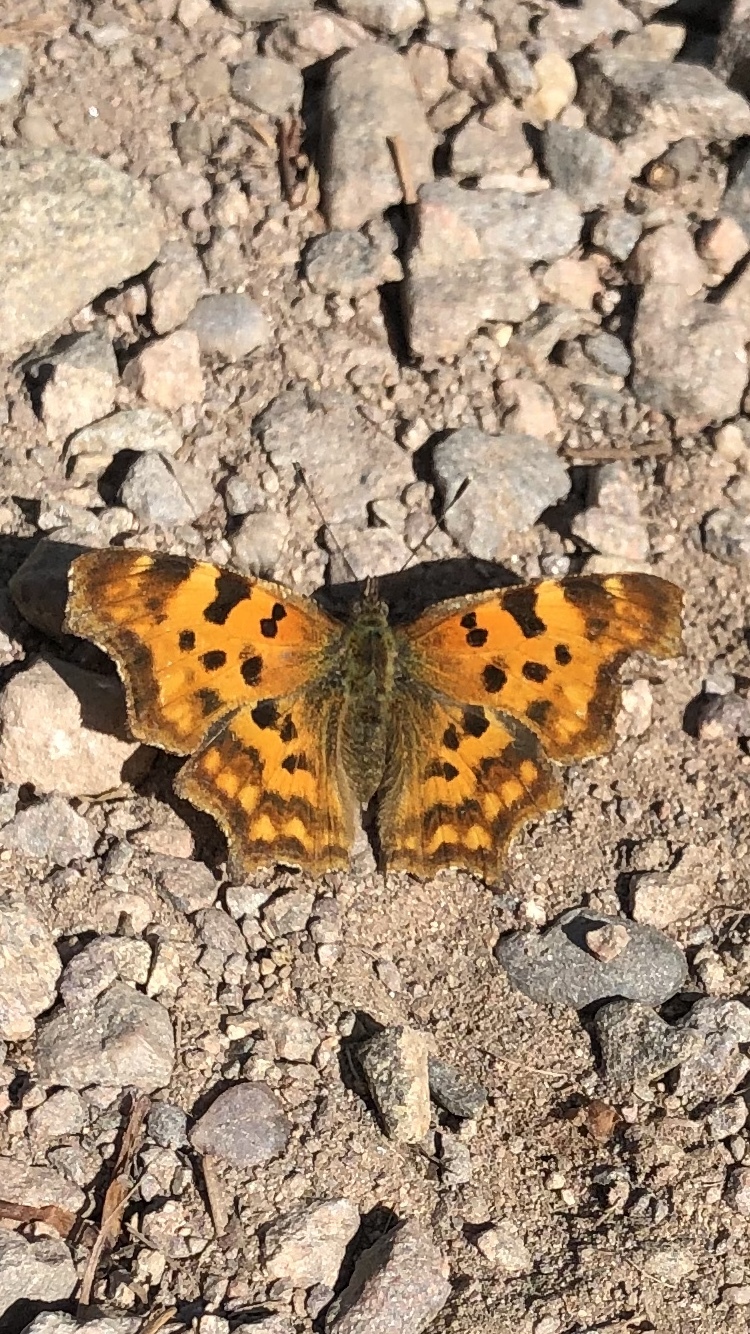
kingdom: Animalia
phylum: Arthropoda
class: Insecta
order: Lepidoptera
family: Nymphalidae
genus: Polygonia
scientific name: Polygonia c-album
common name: Comma
